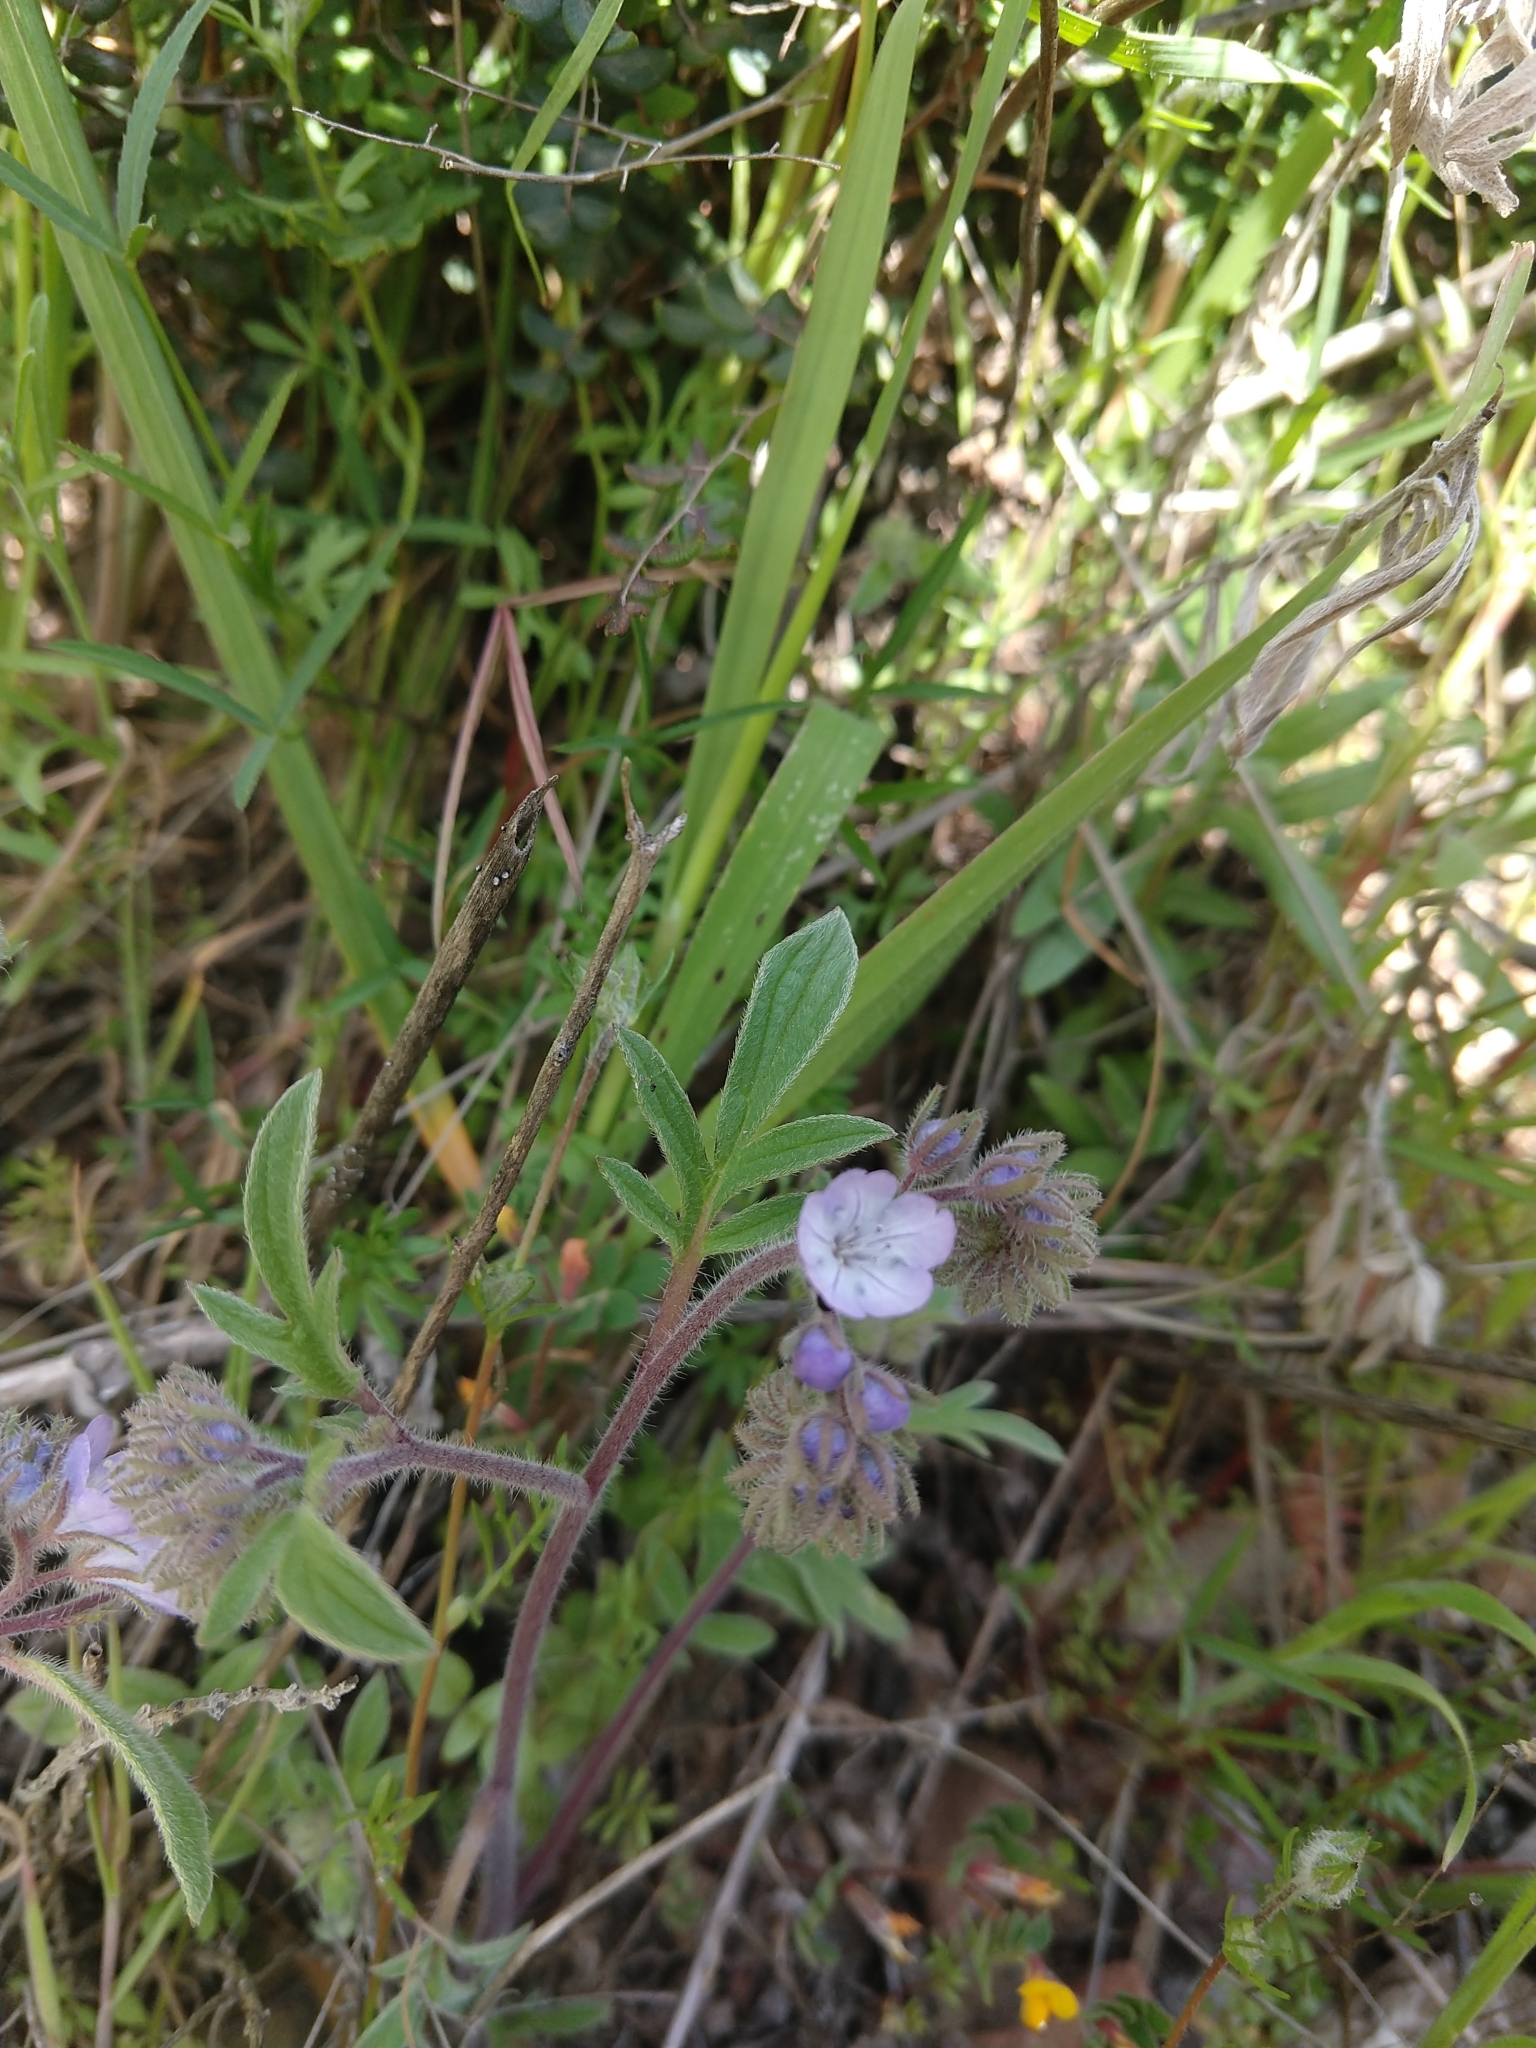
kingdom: Plantae
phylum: Tracheophyta
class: Magnoliopsida
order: Boraginales
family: Hydrophyllaceae
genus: Phacelia
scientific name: Phacelia breweri
